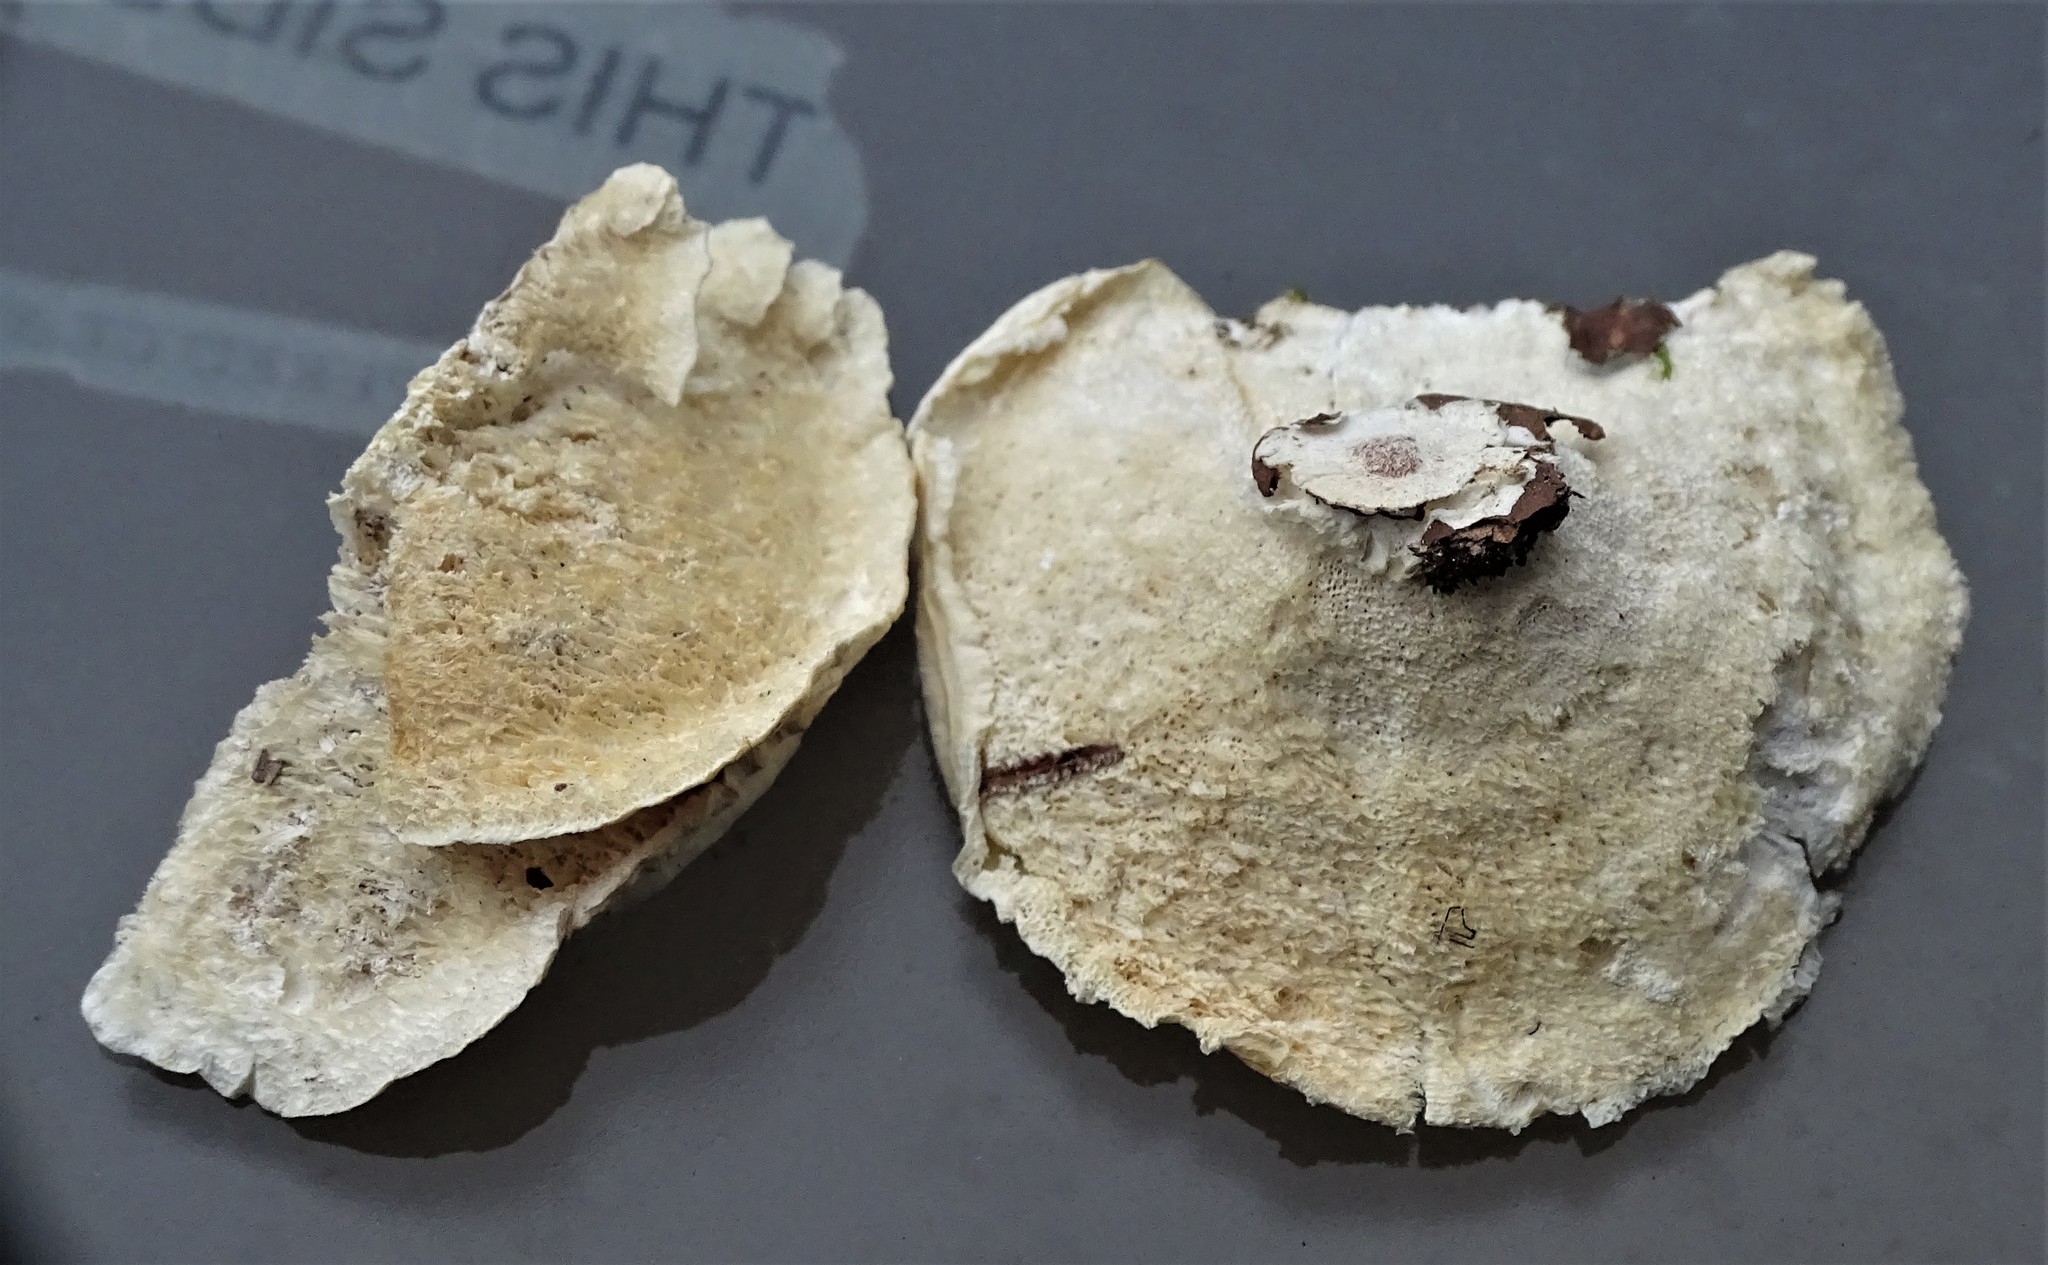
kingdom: Fungi
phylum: Basidiomycota
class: Agaricomycetes
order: Polyporales
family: Polyporaceae
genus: Poronidulus
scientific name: Poronidulus conchifer
